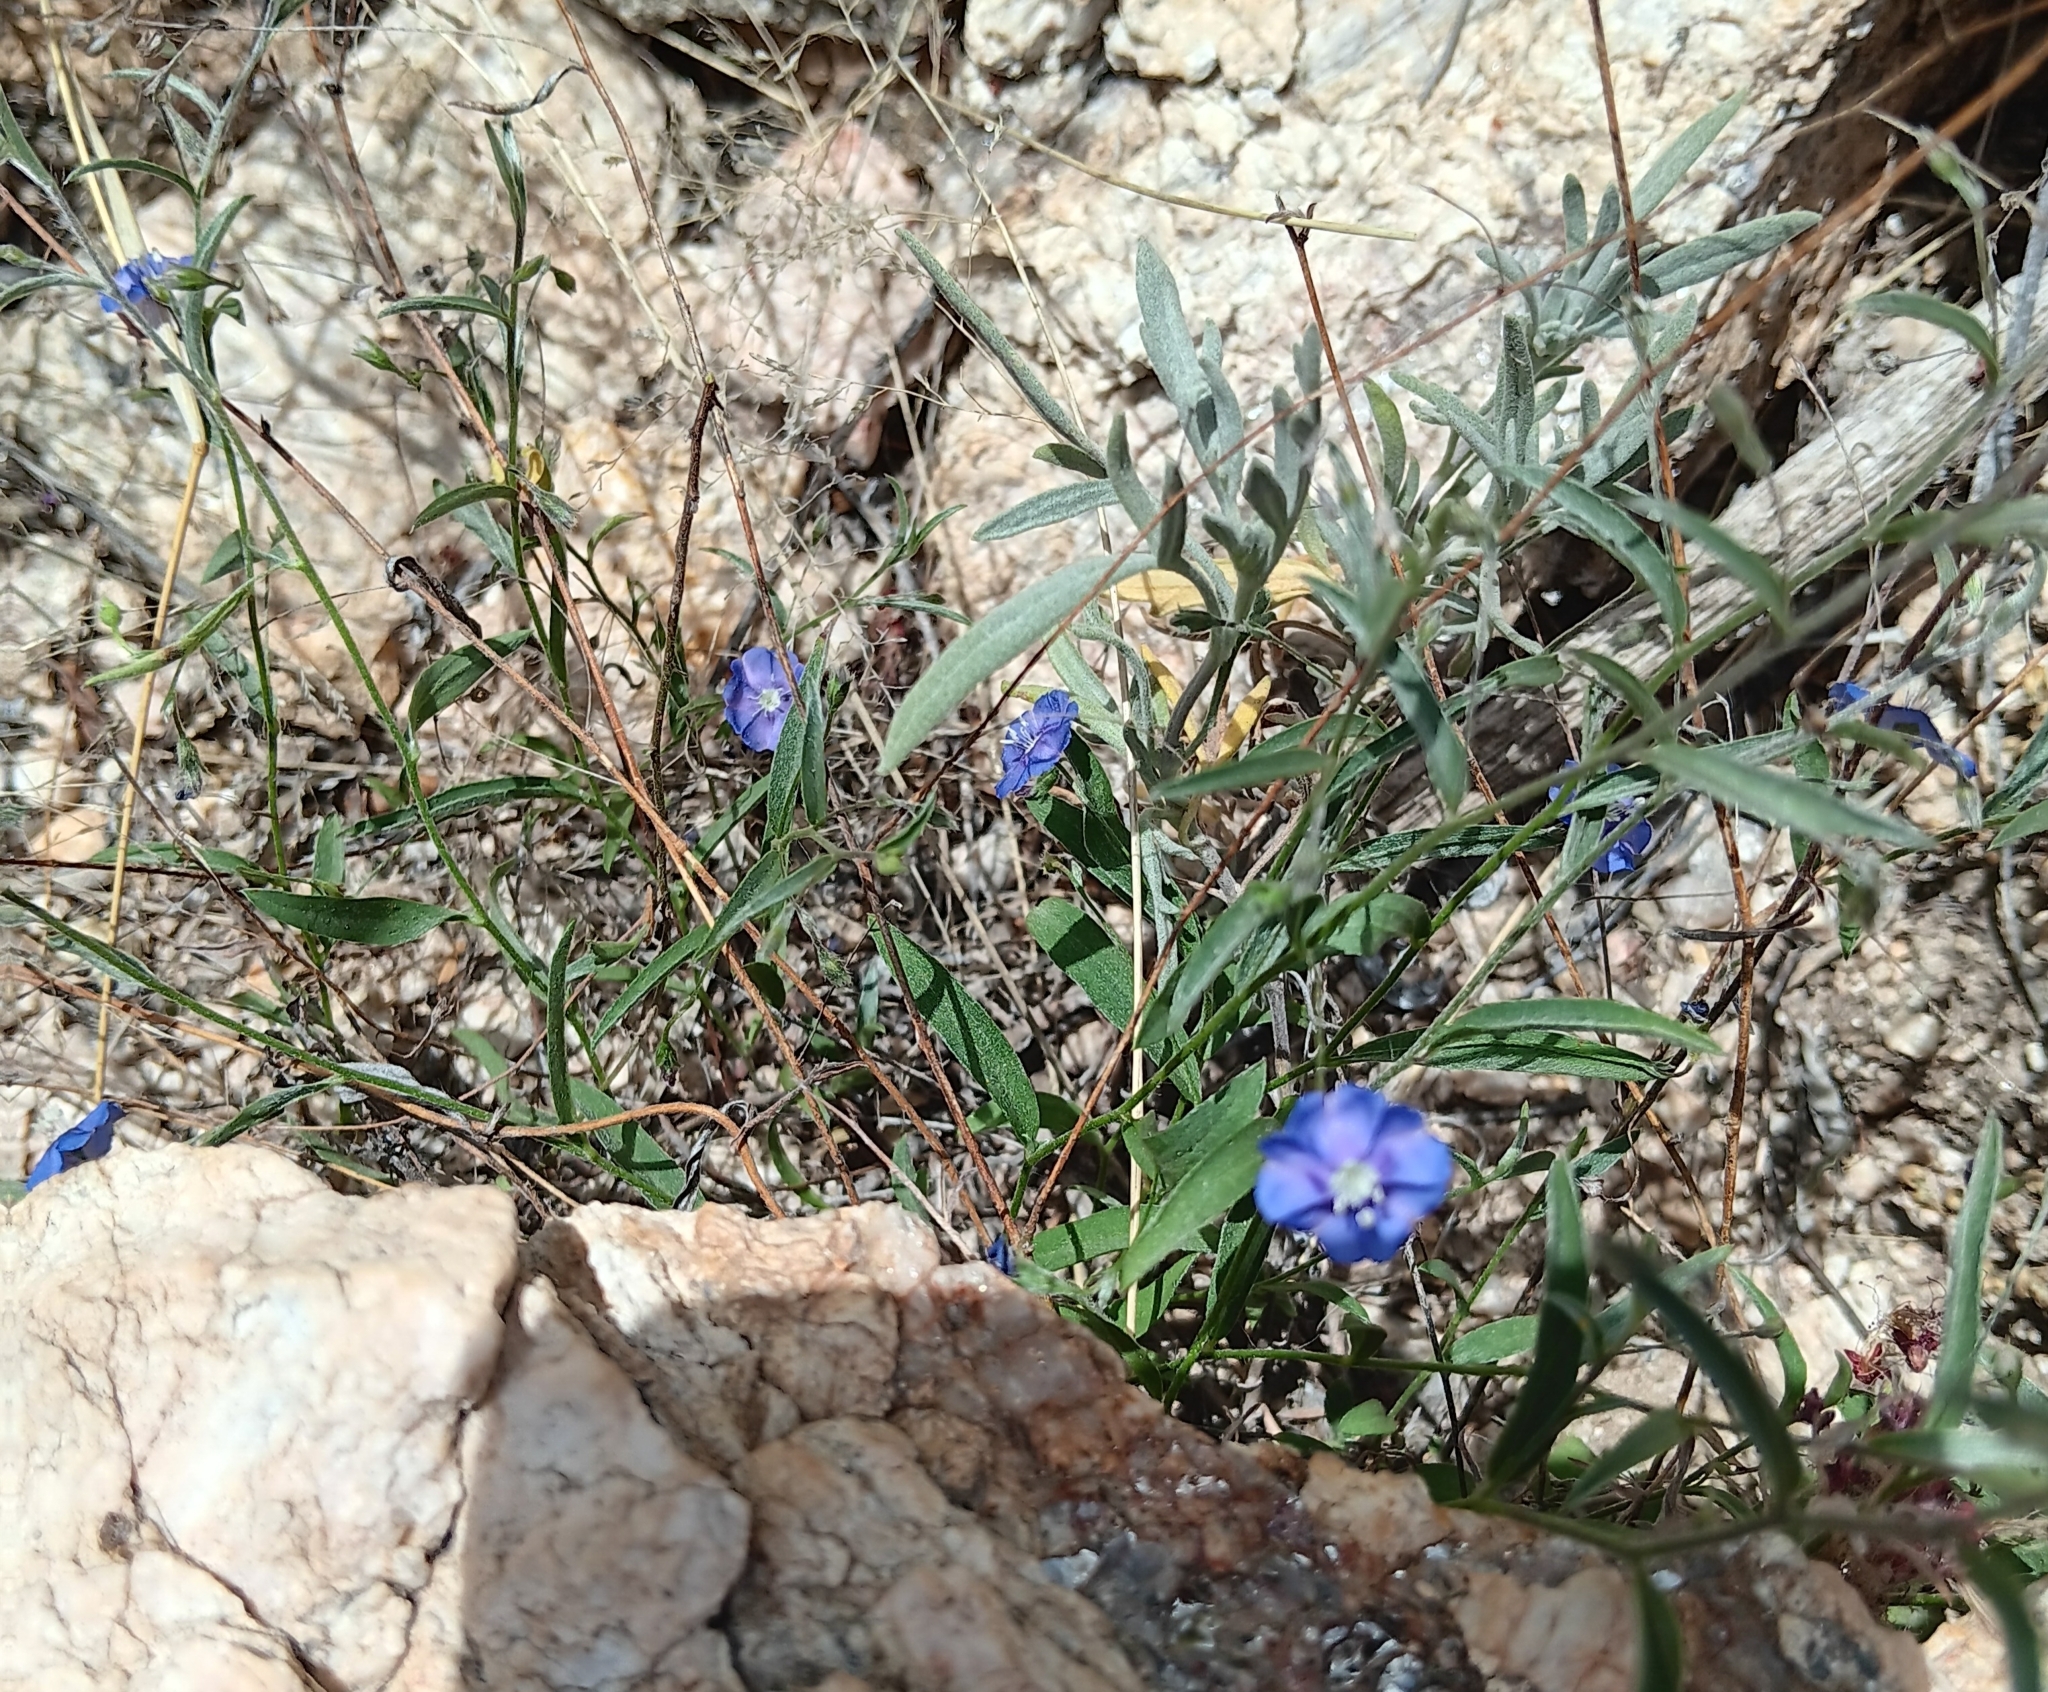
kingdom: Plantae
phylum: Tracheophyta
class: Magnoliopsida
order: Solanales
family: Convolvulaceae
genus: Evolvulus
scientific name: Evolvulus alsinoides
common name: Slender dwarf morning-glory
